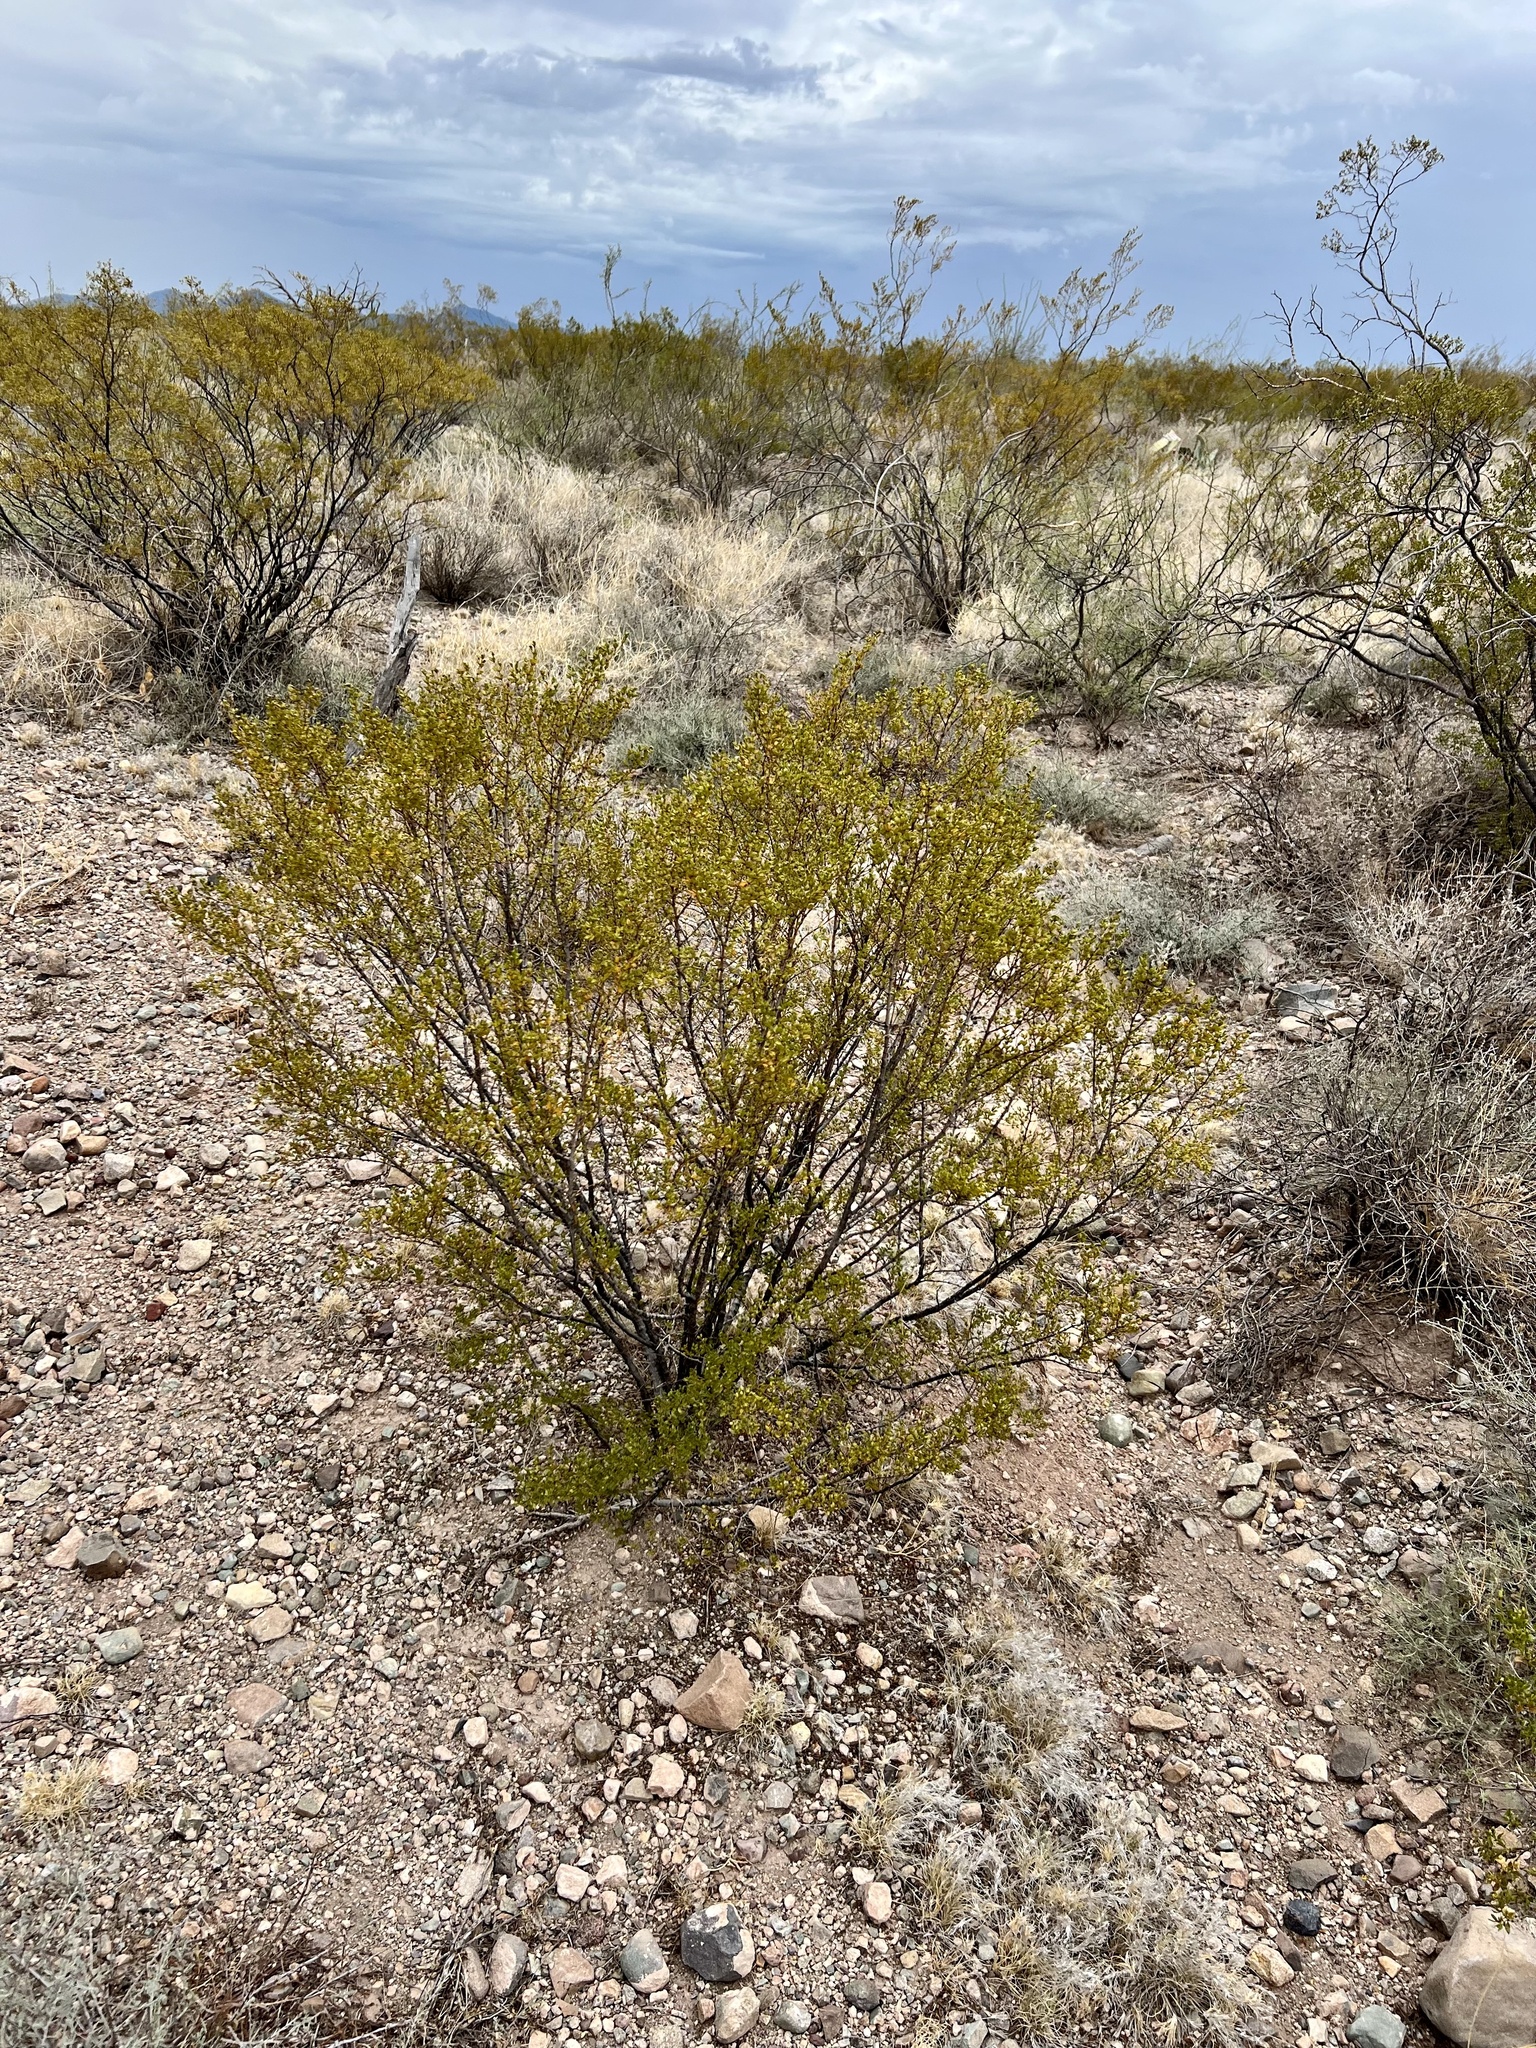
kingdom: Plantae
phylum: Tracheophyta
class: Magnoliopsida
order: Zygophyllales
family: Zygophyllaceae
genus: Larrea
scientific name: Larrea tridentata
